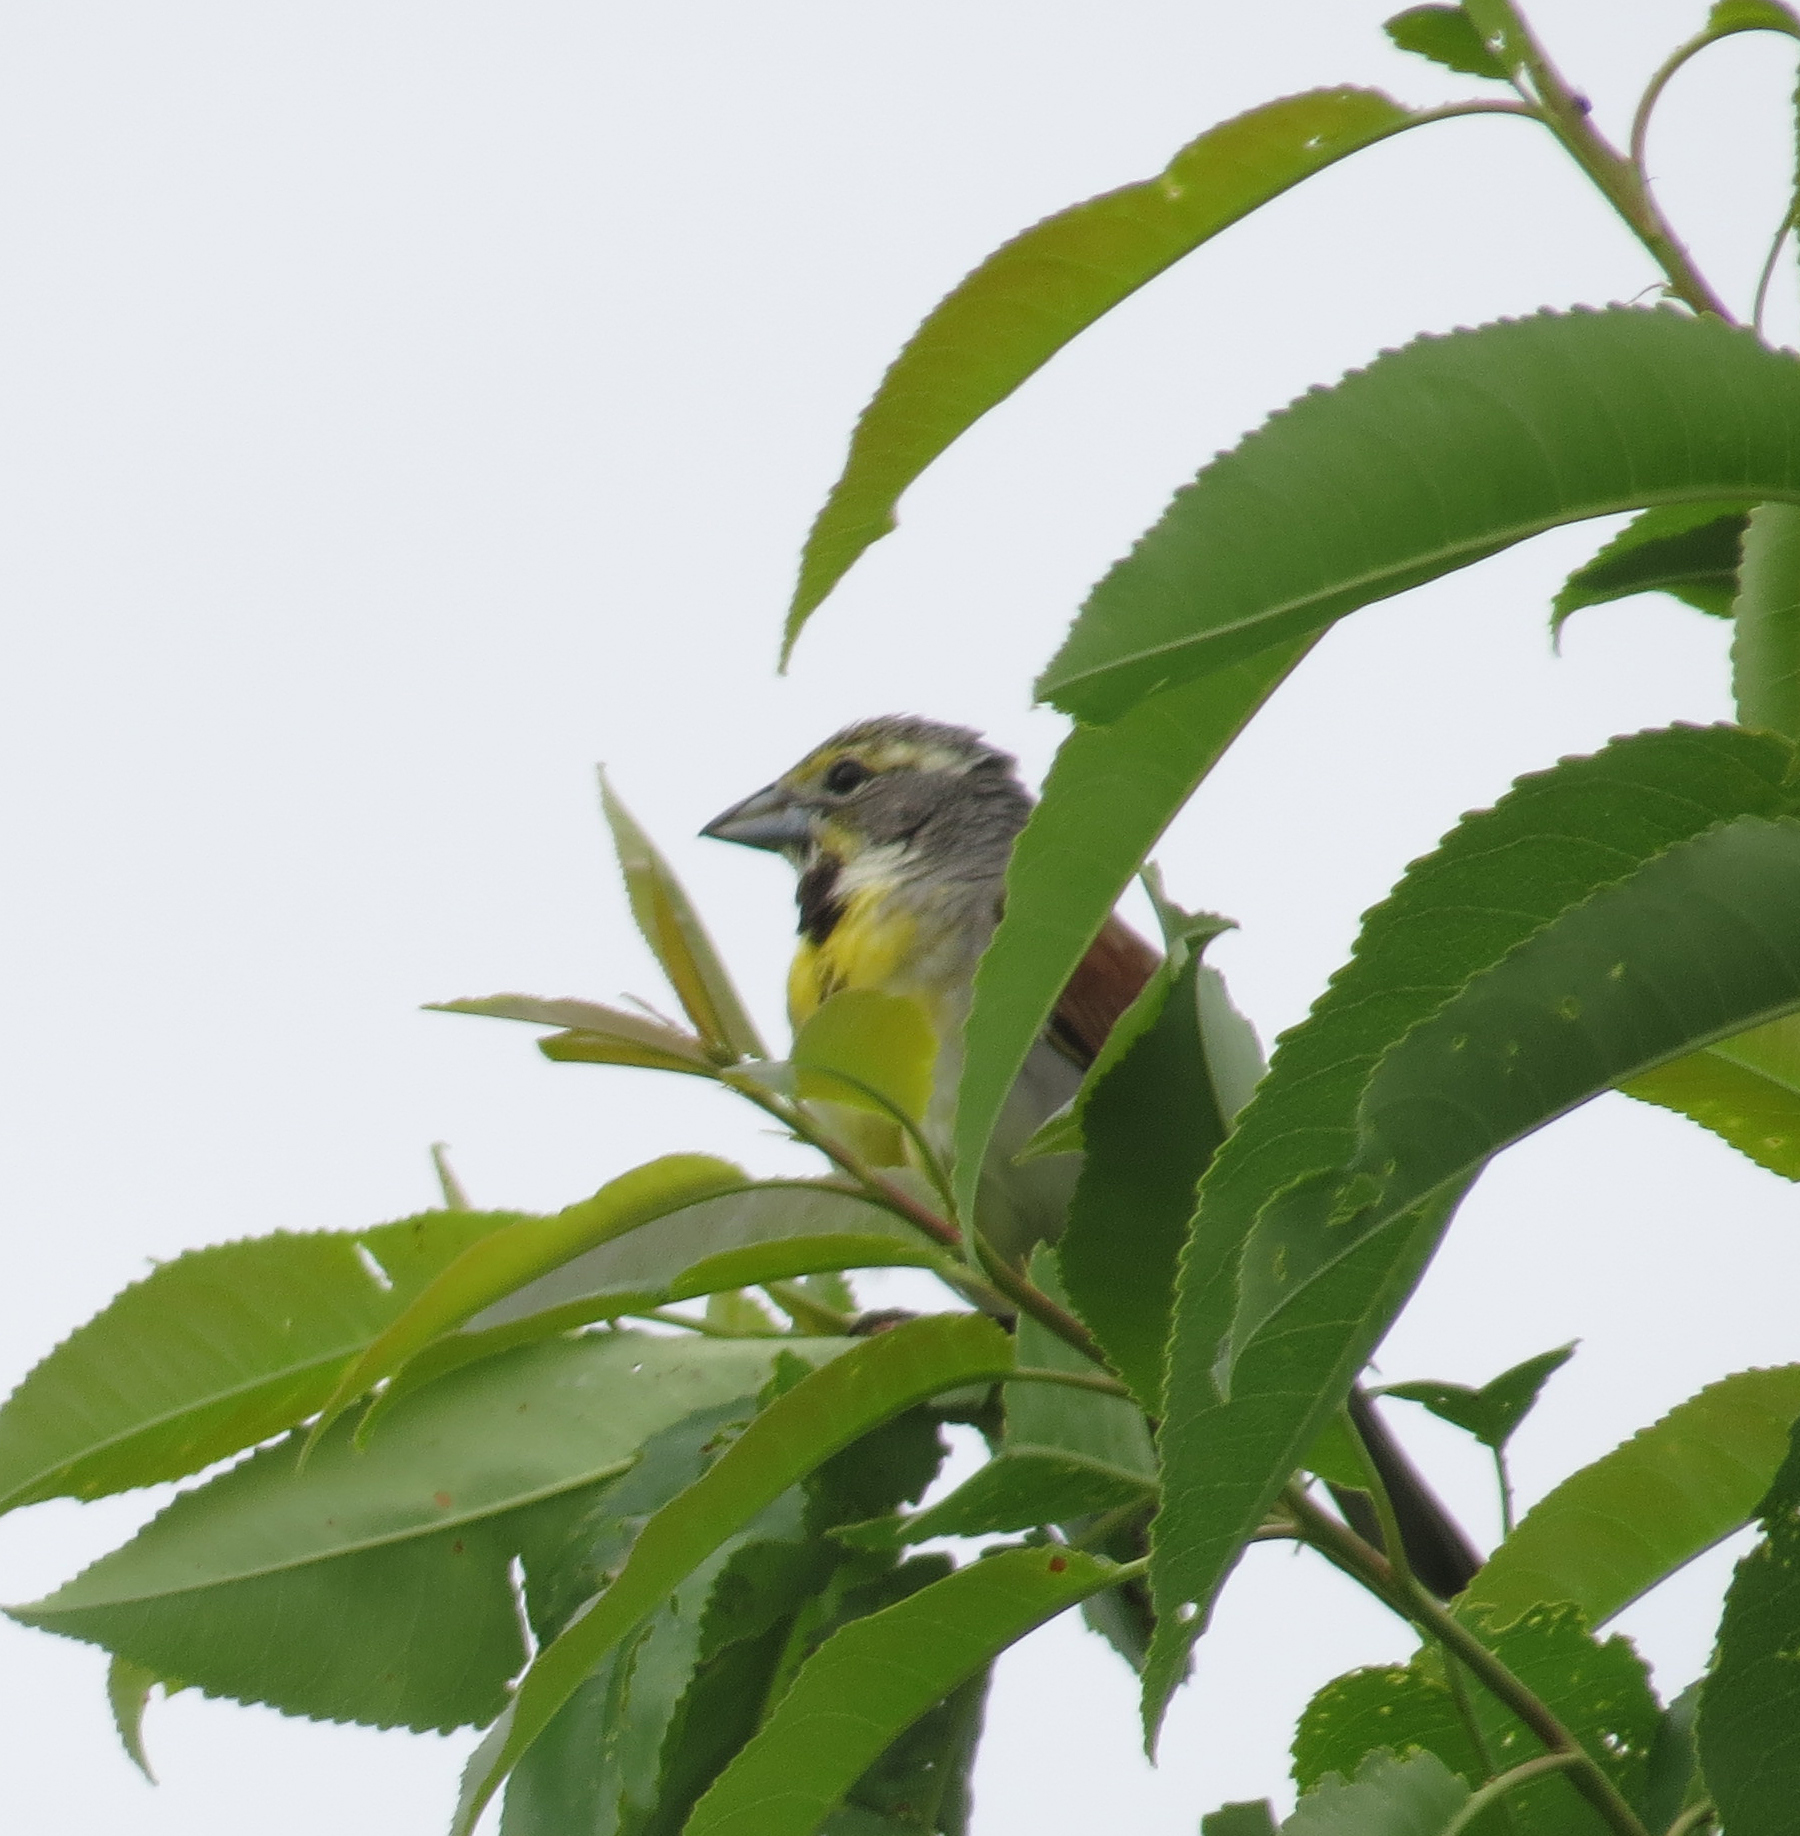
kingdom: Animalia
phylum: Chordata
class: Aves
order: Passeriformes
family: Cardinalidae
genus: Spiza
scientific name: Spiza americana
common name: Dickcissel
